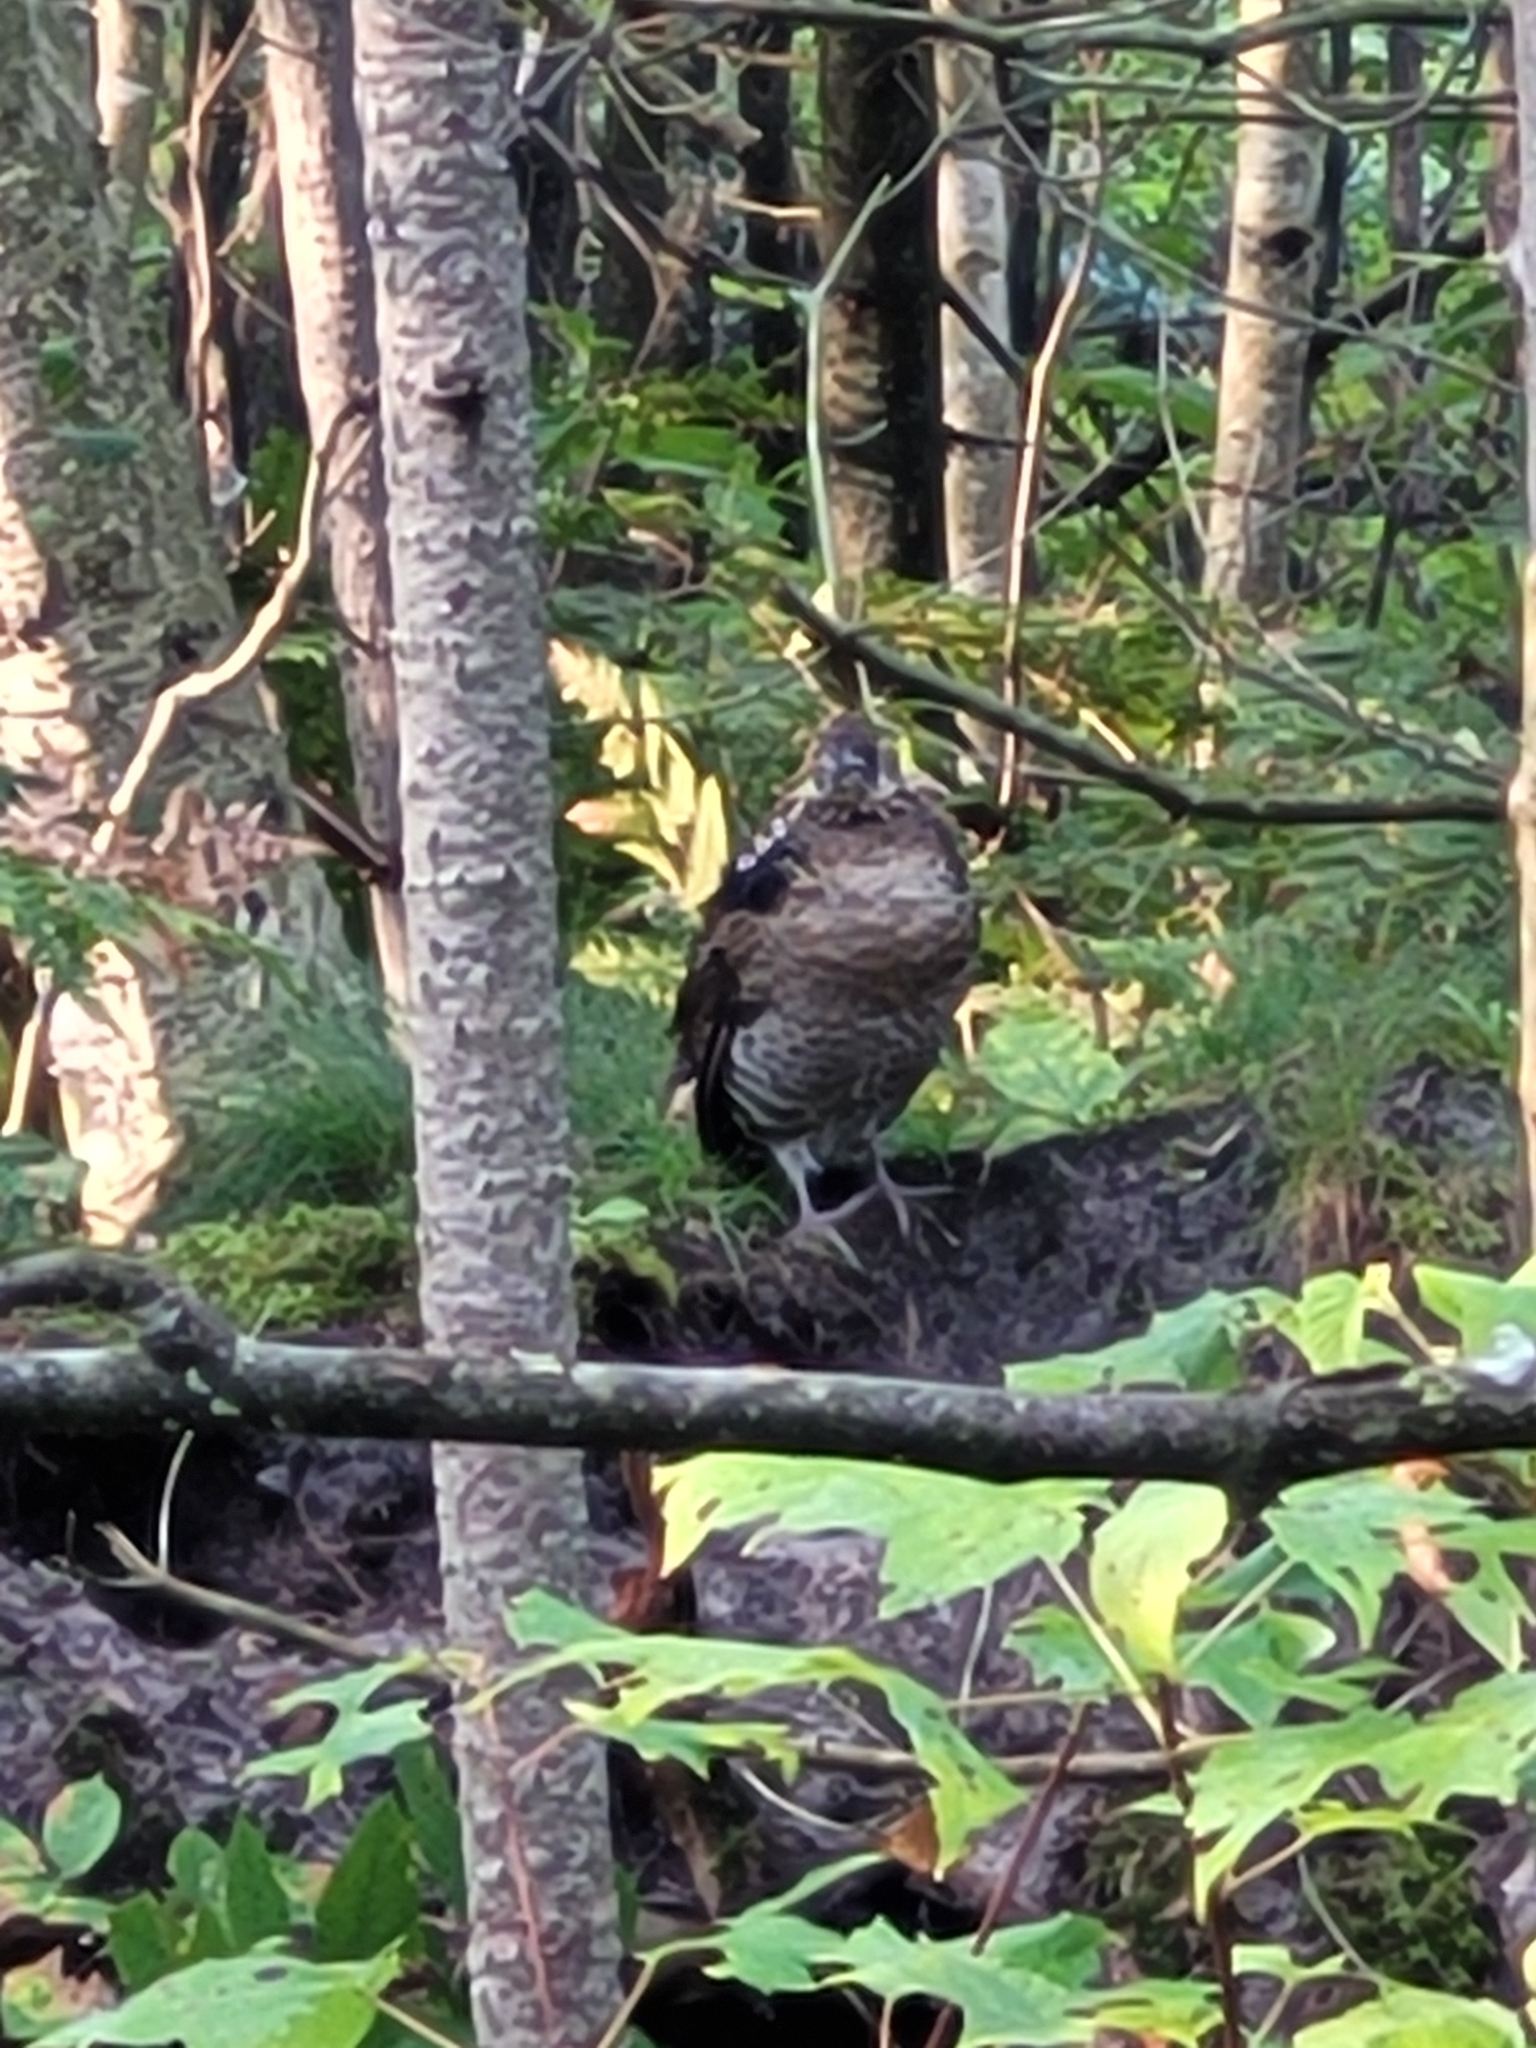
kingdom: Animalia
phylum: Chordata
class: Aves
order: Galliformes
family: Phasianidae
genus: Bonasa
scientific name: Bonasa umbellus
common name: Ruffed grouse
